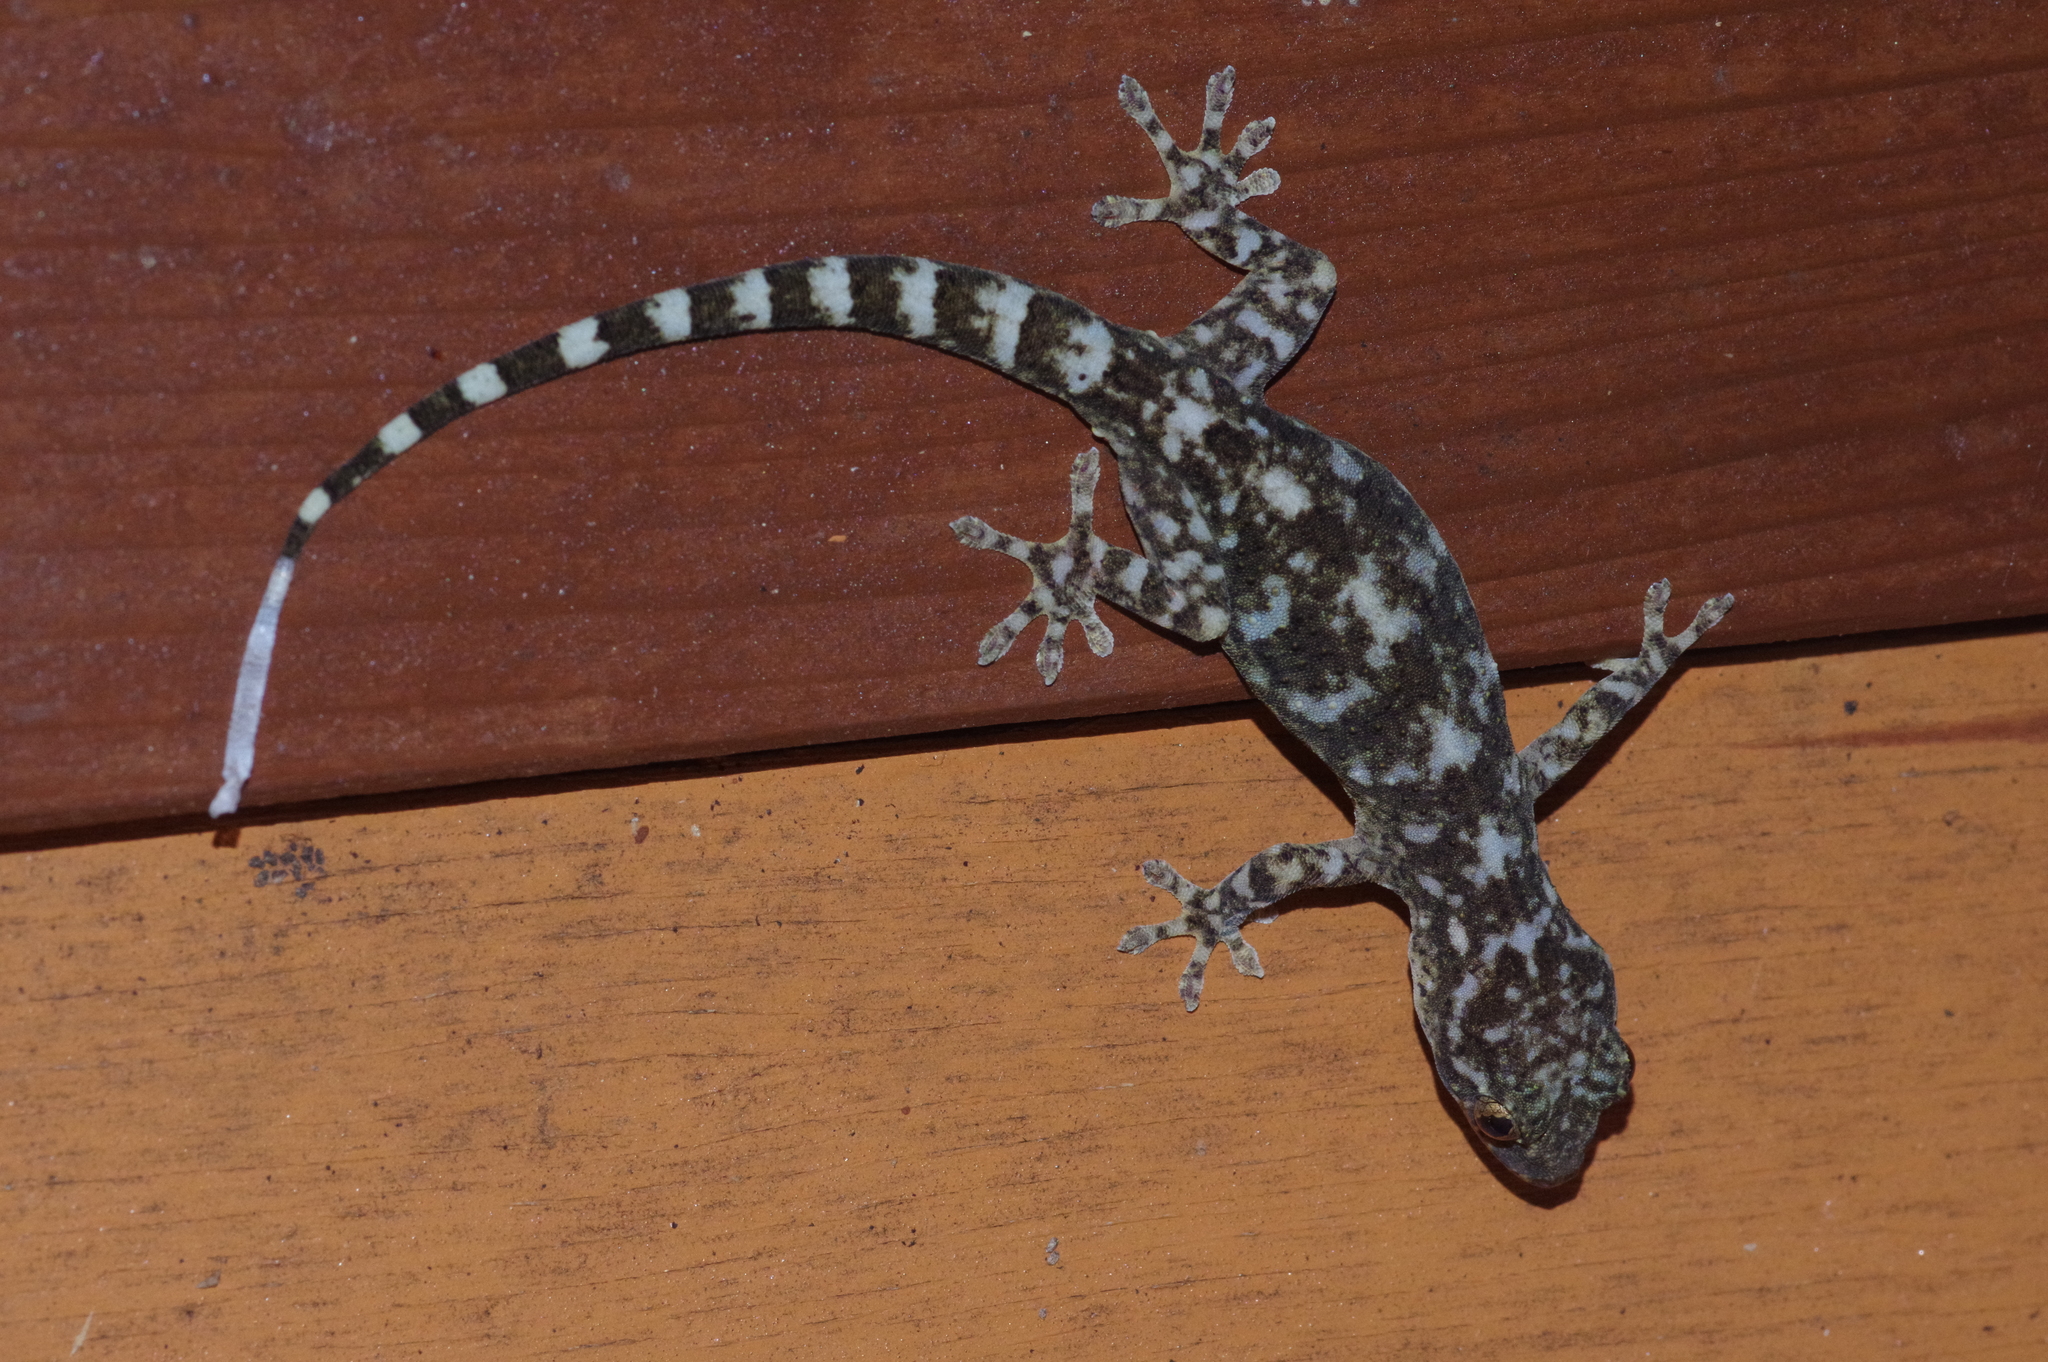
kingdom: Animalia
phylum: Chordata
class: Squamata
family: Gekkonidae
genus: Gekko
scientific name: Gekko hokouensis
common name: Kwangsi gecko
